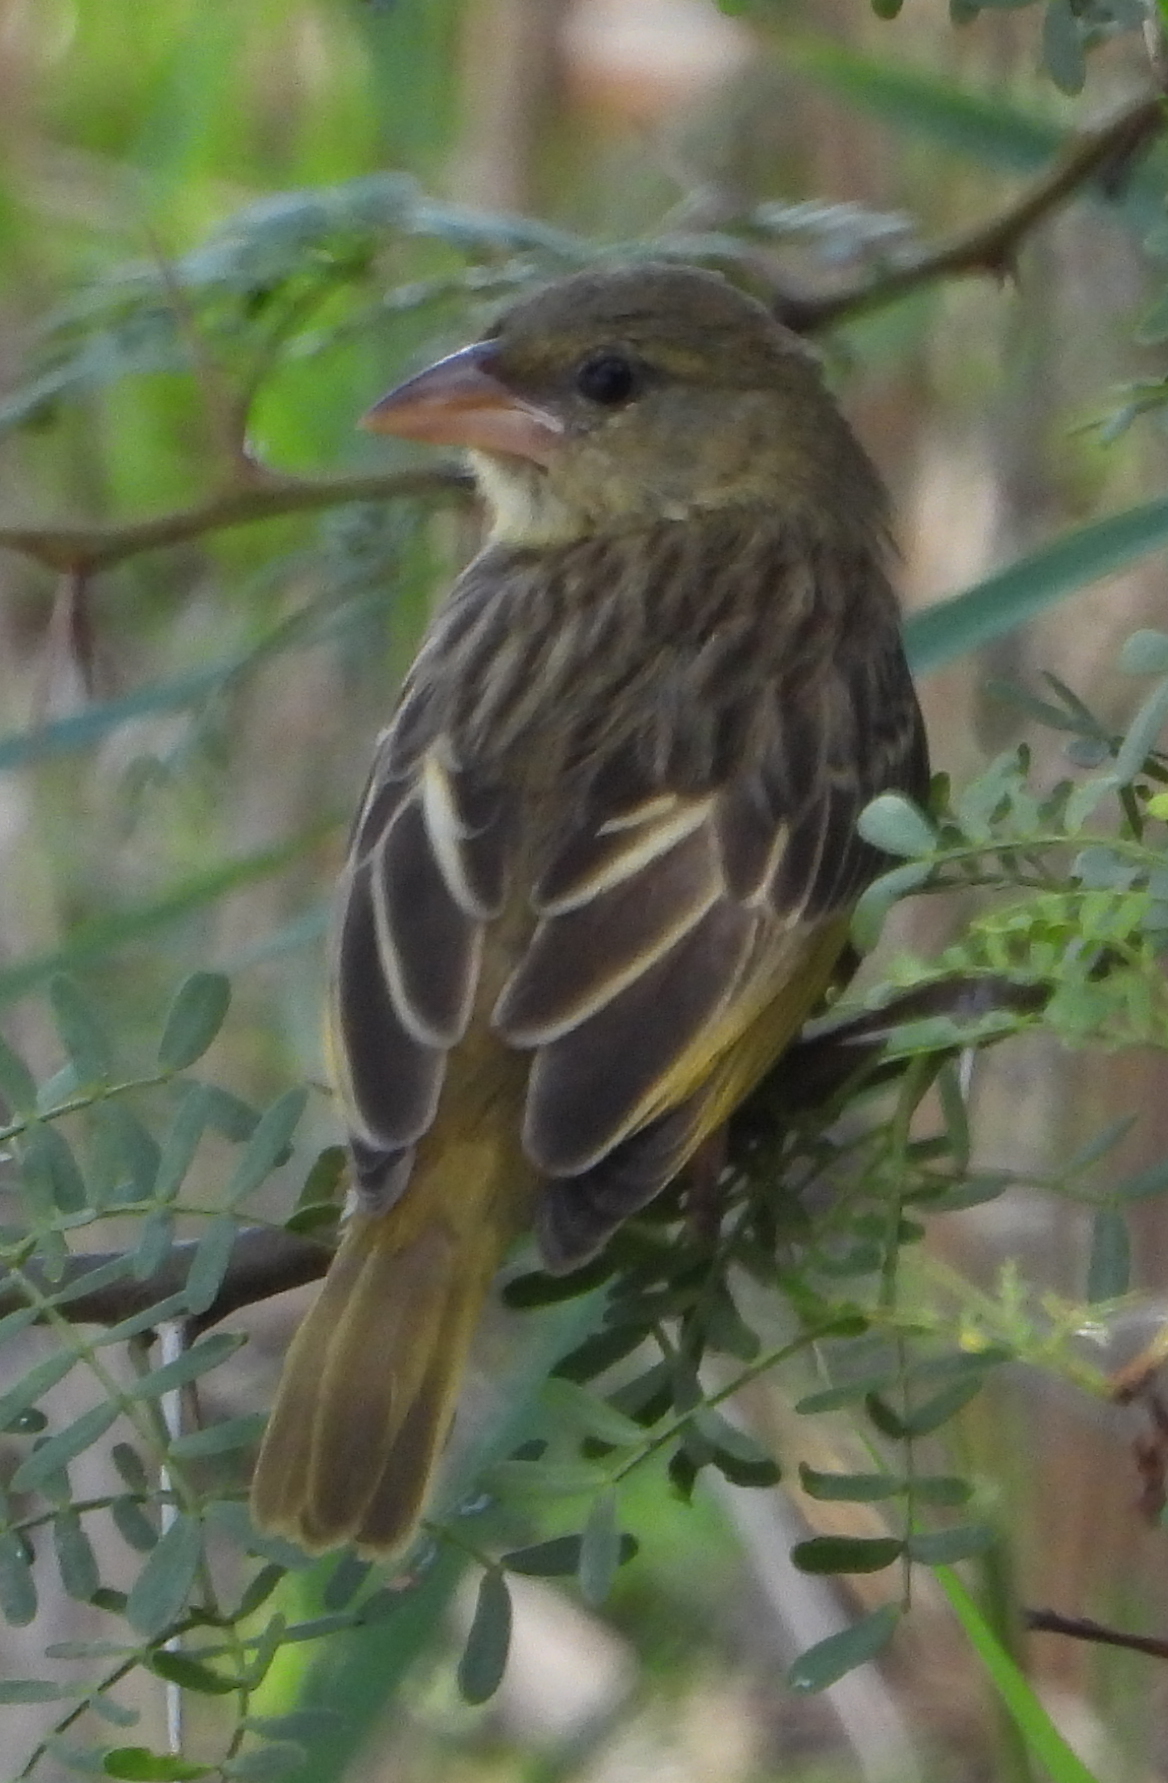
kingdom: Animalia
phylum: Chordata
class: Aves
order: Passeriformes
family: Ploceidae
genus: Ploceus
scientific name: Ploceus velatus
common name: Southern masked weaver
